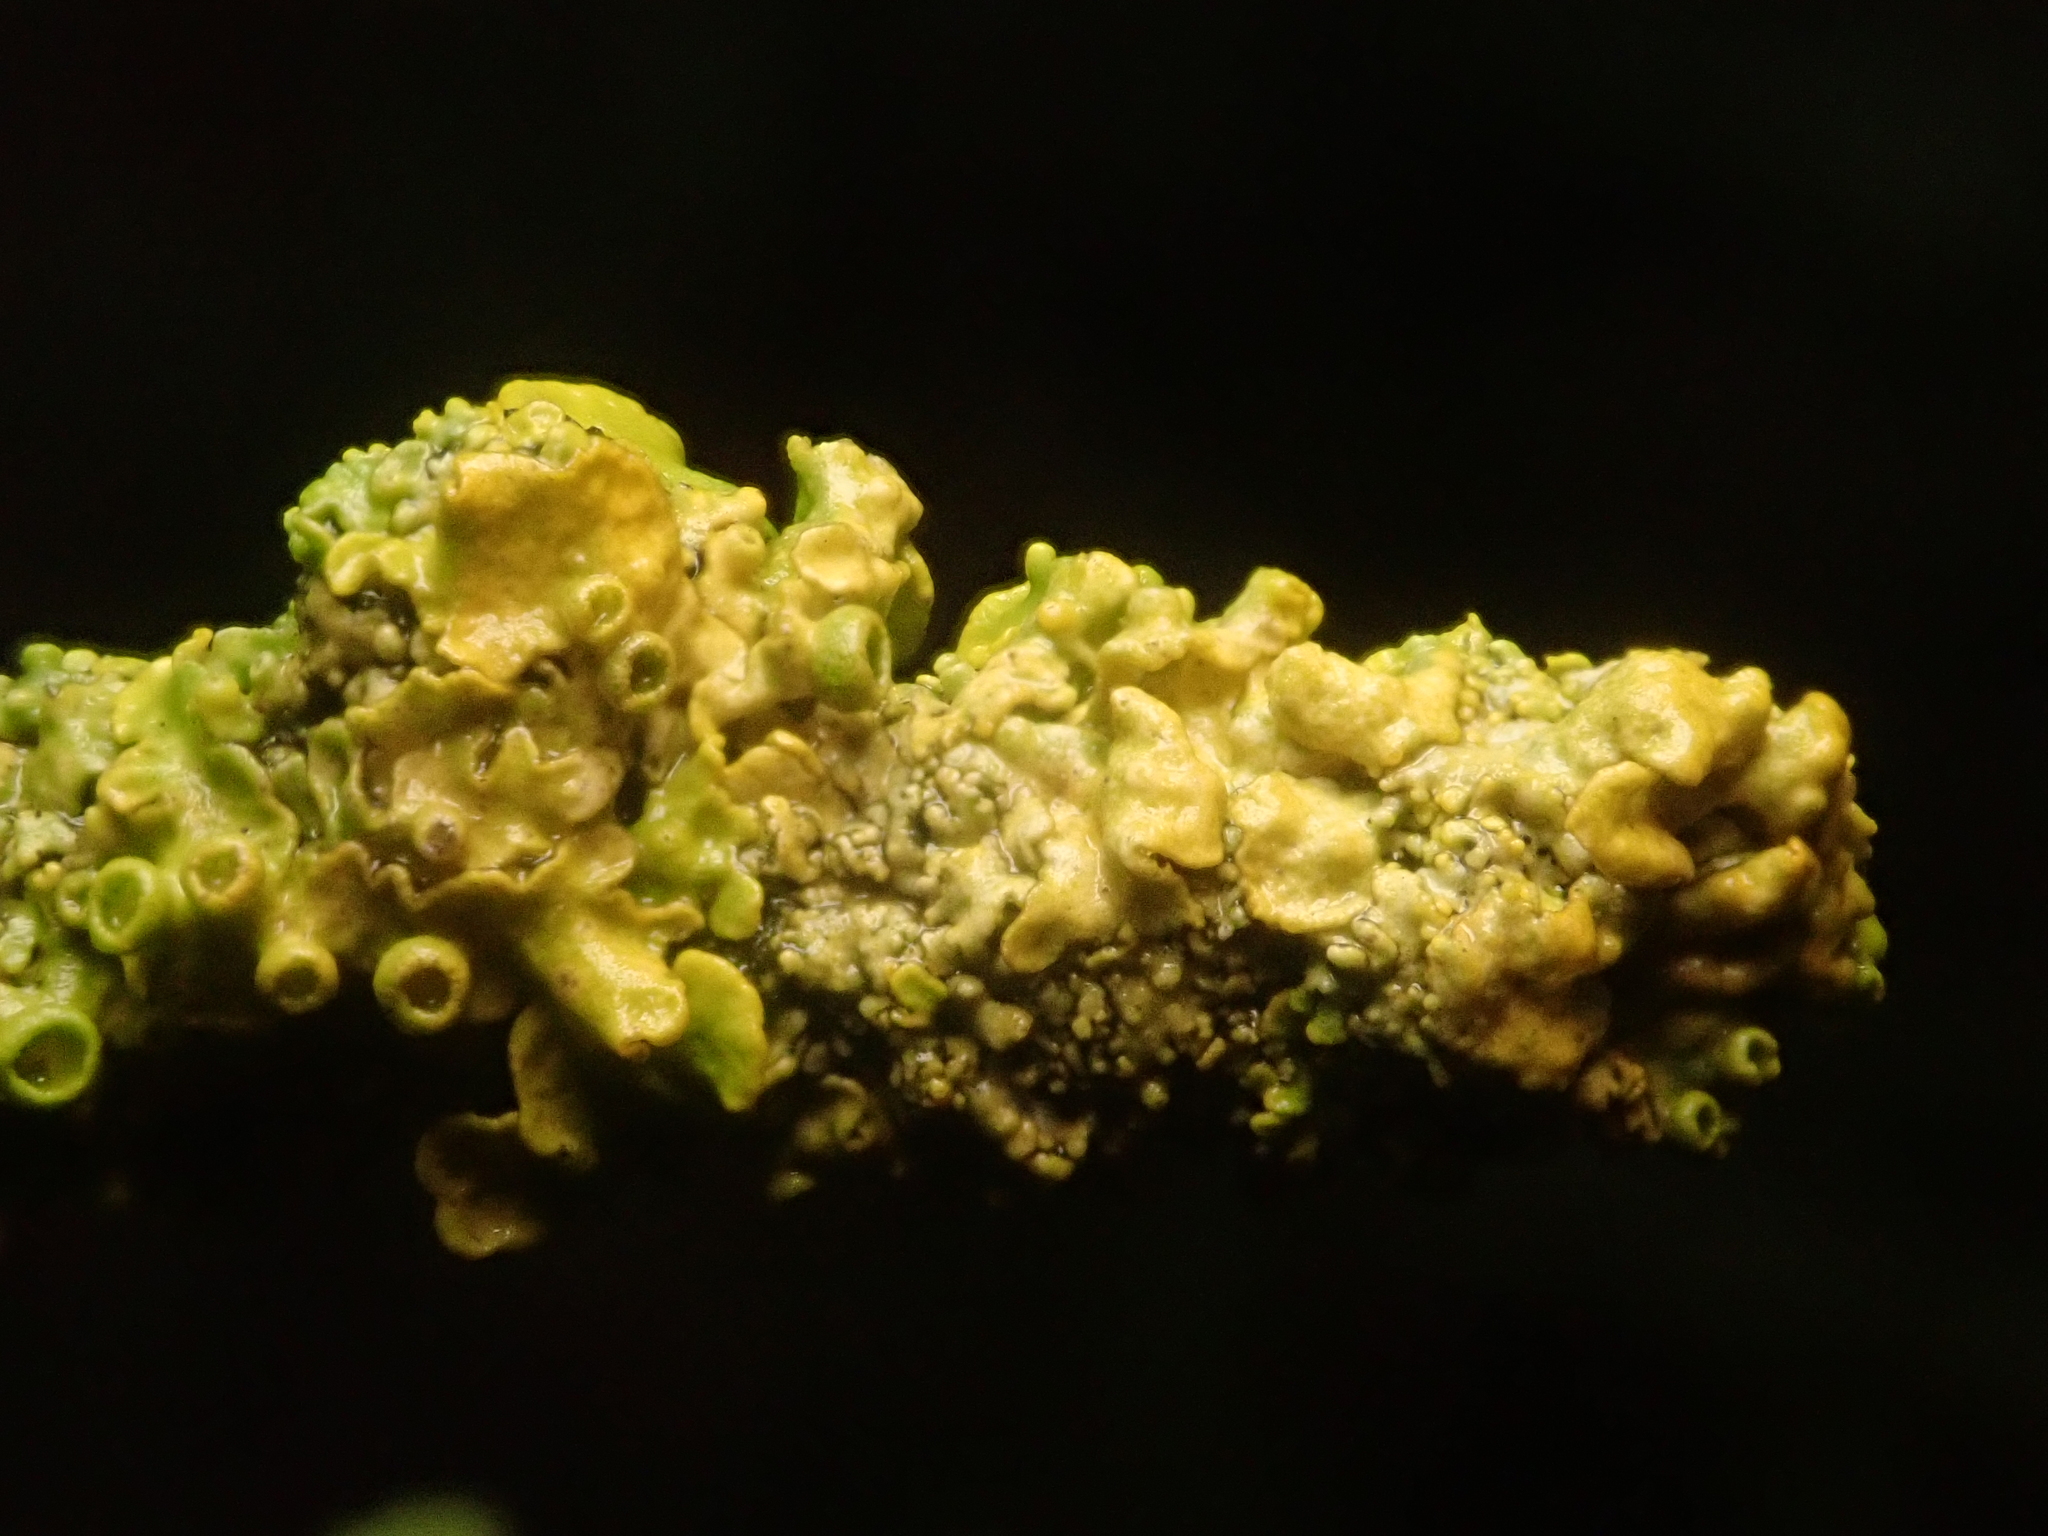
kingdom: Fungi
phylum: Ascomycota
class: Lecanoromycetes
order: Teloschistales
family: Teloschistaceae
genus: Xanthoria
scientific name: Xanthoria parietina
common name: Common orange lichen
